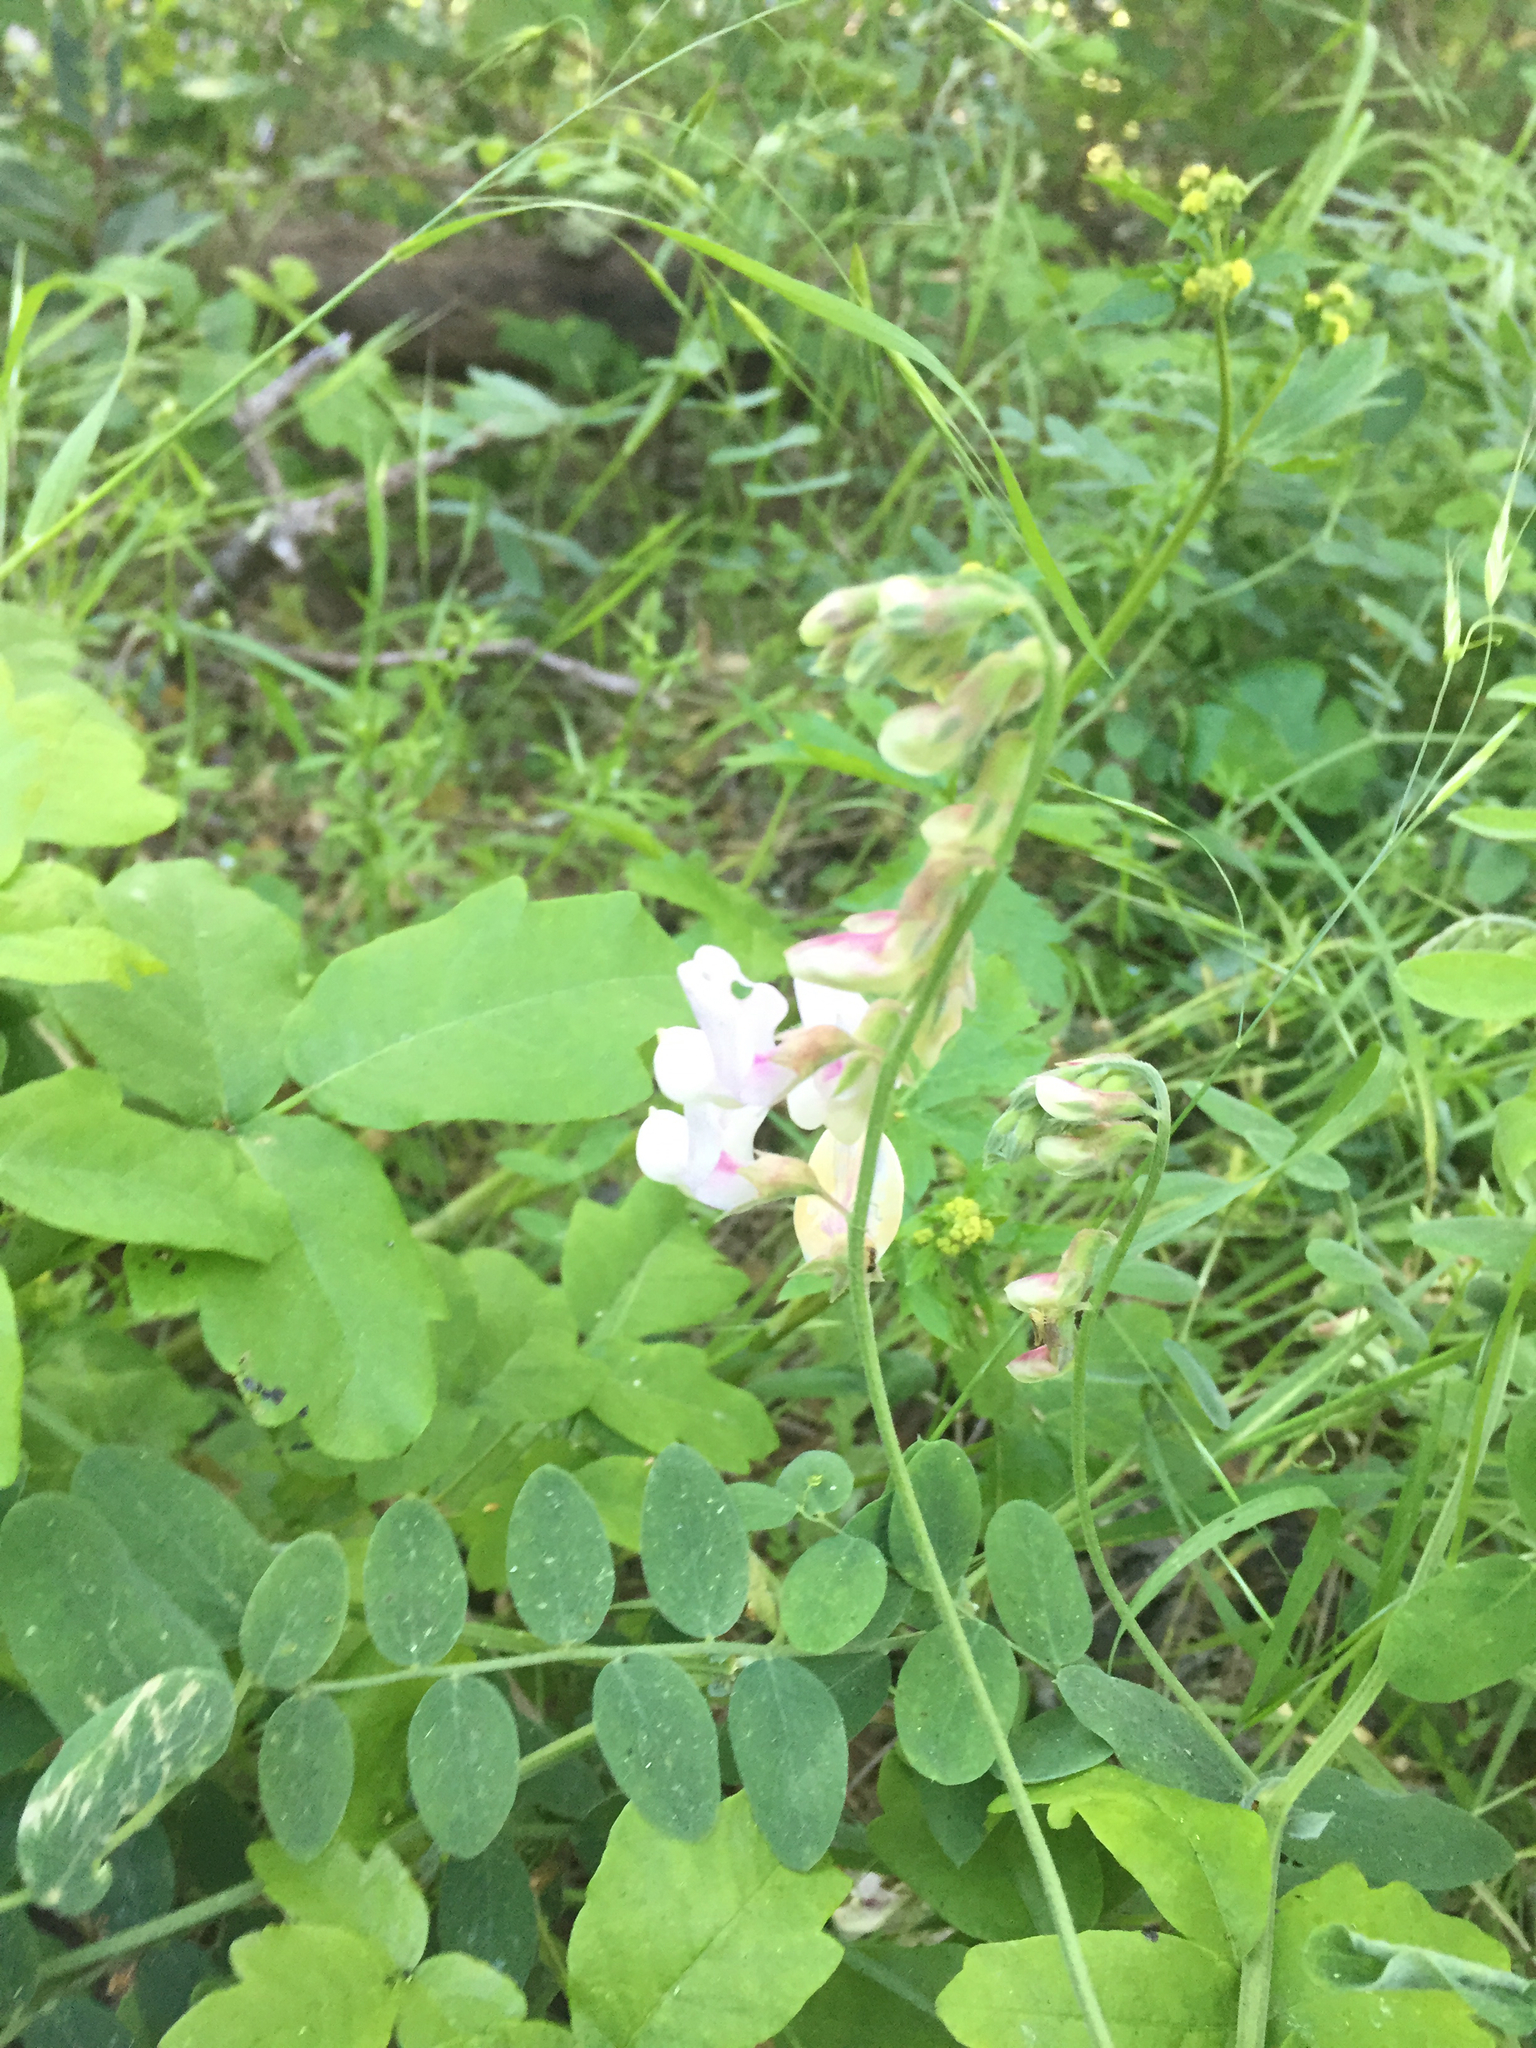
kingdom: Plantae
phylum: Tracheophyta
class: Magnoliopsida
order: Fabales
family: Fabaceae
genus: Lathyrus
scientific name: Lathyrus vestitus
